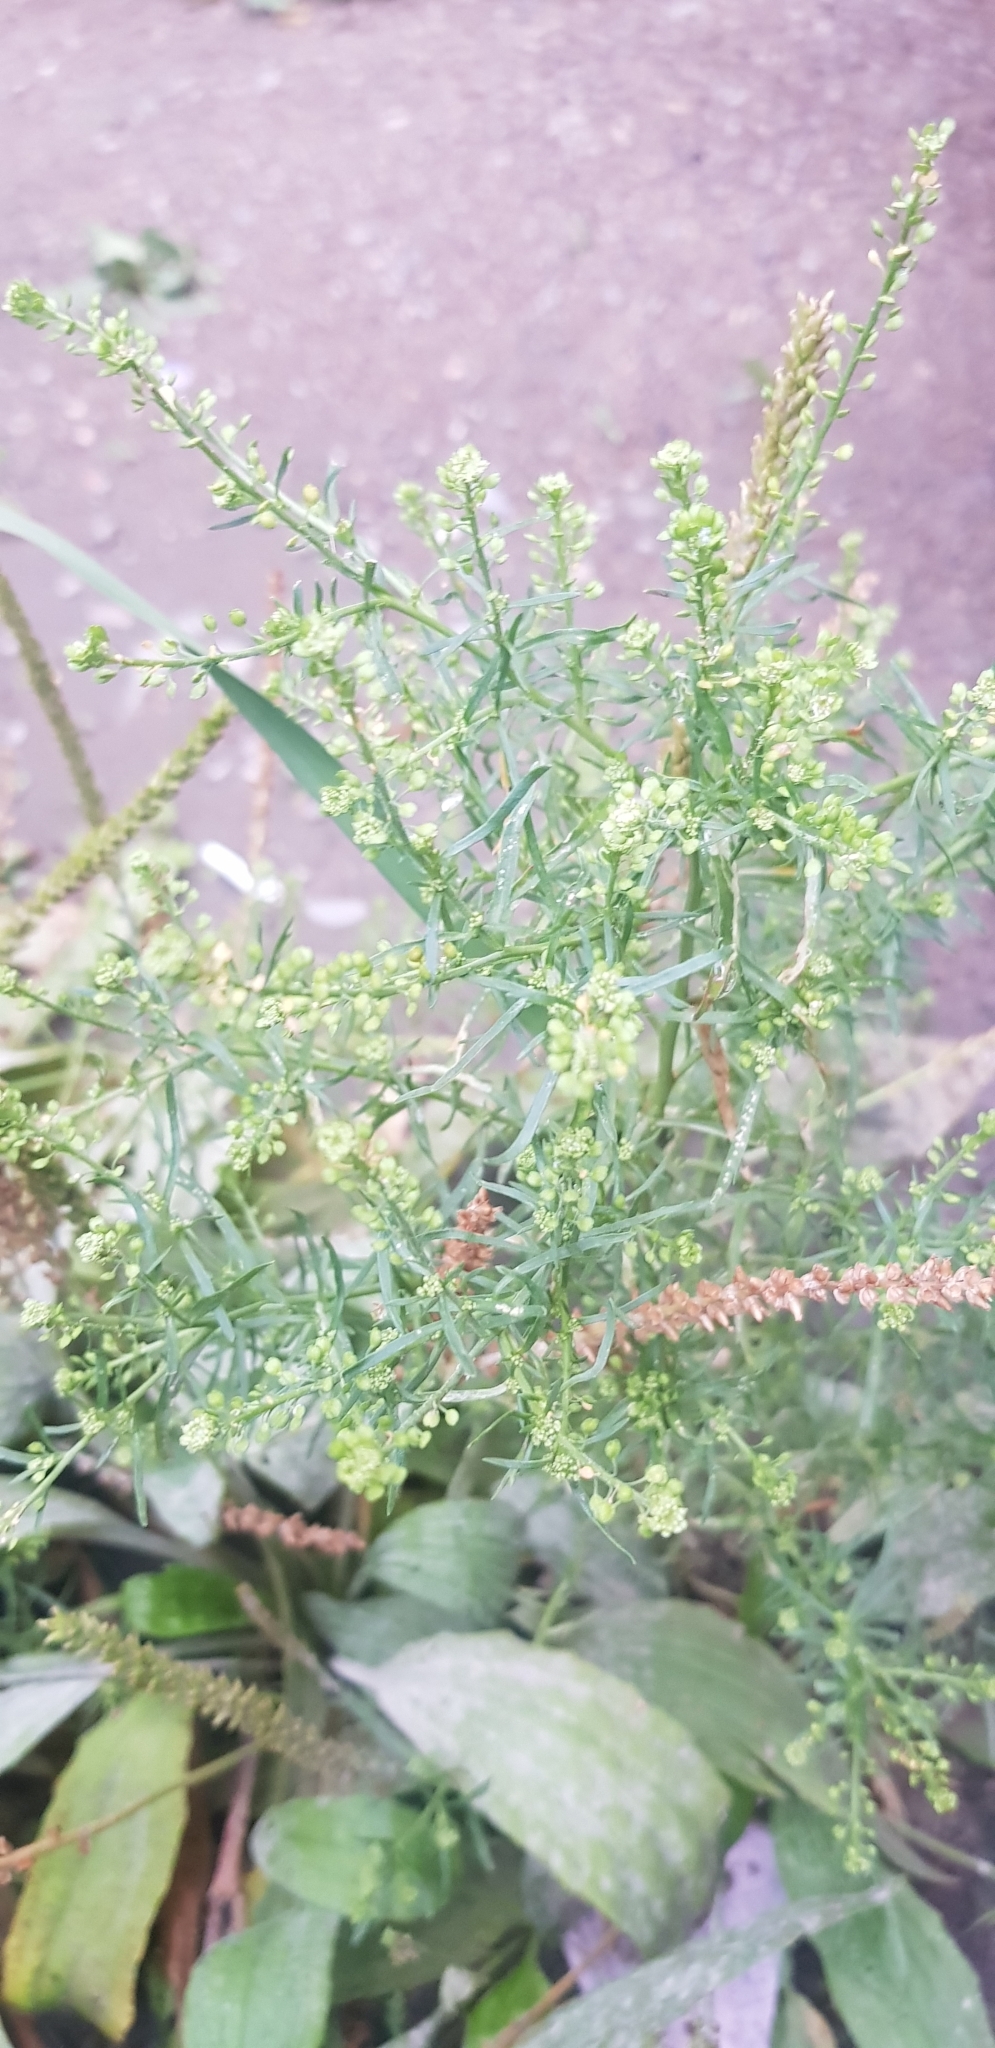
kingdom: Plantae
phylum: Tracheophyta
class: Magnoliopsida
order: Brassicales
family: Brassicaceae
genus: Lepidium
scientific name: Lepidium ruderale
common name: Narrow-leaved pepperwort
